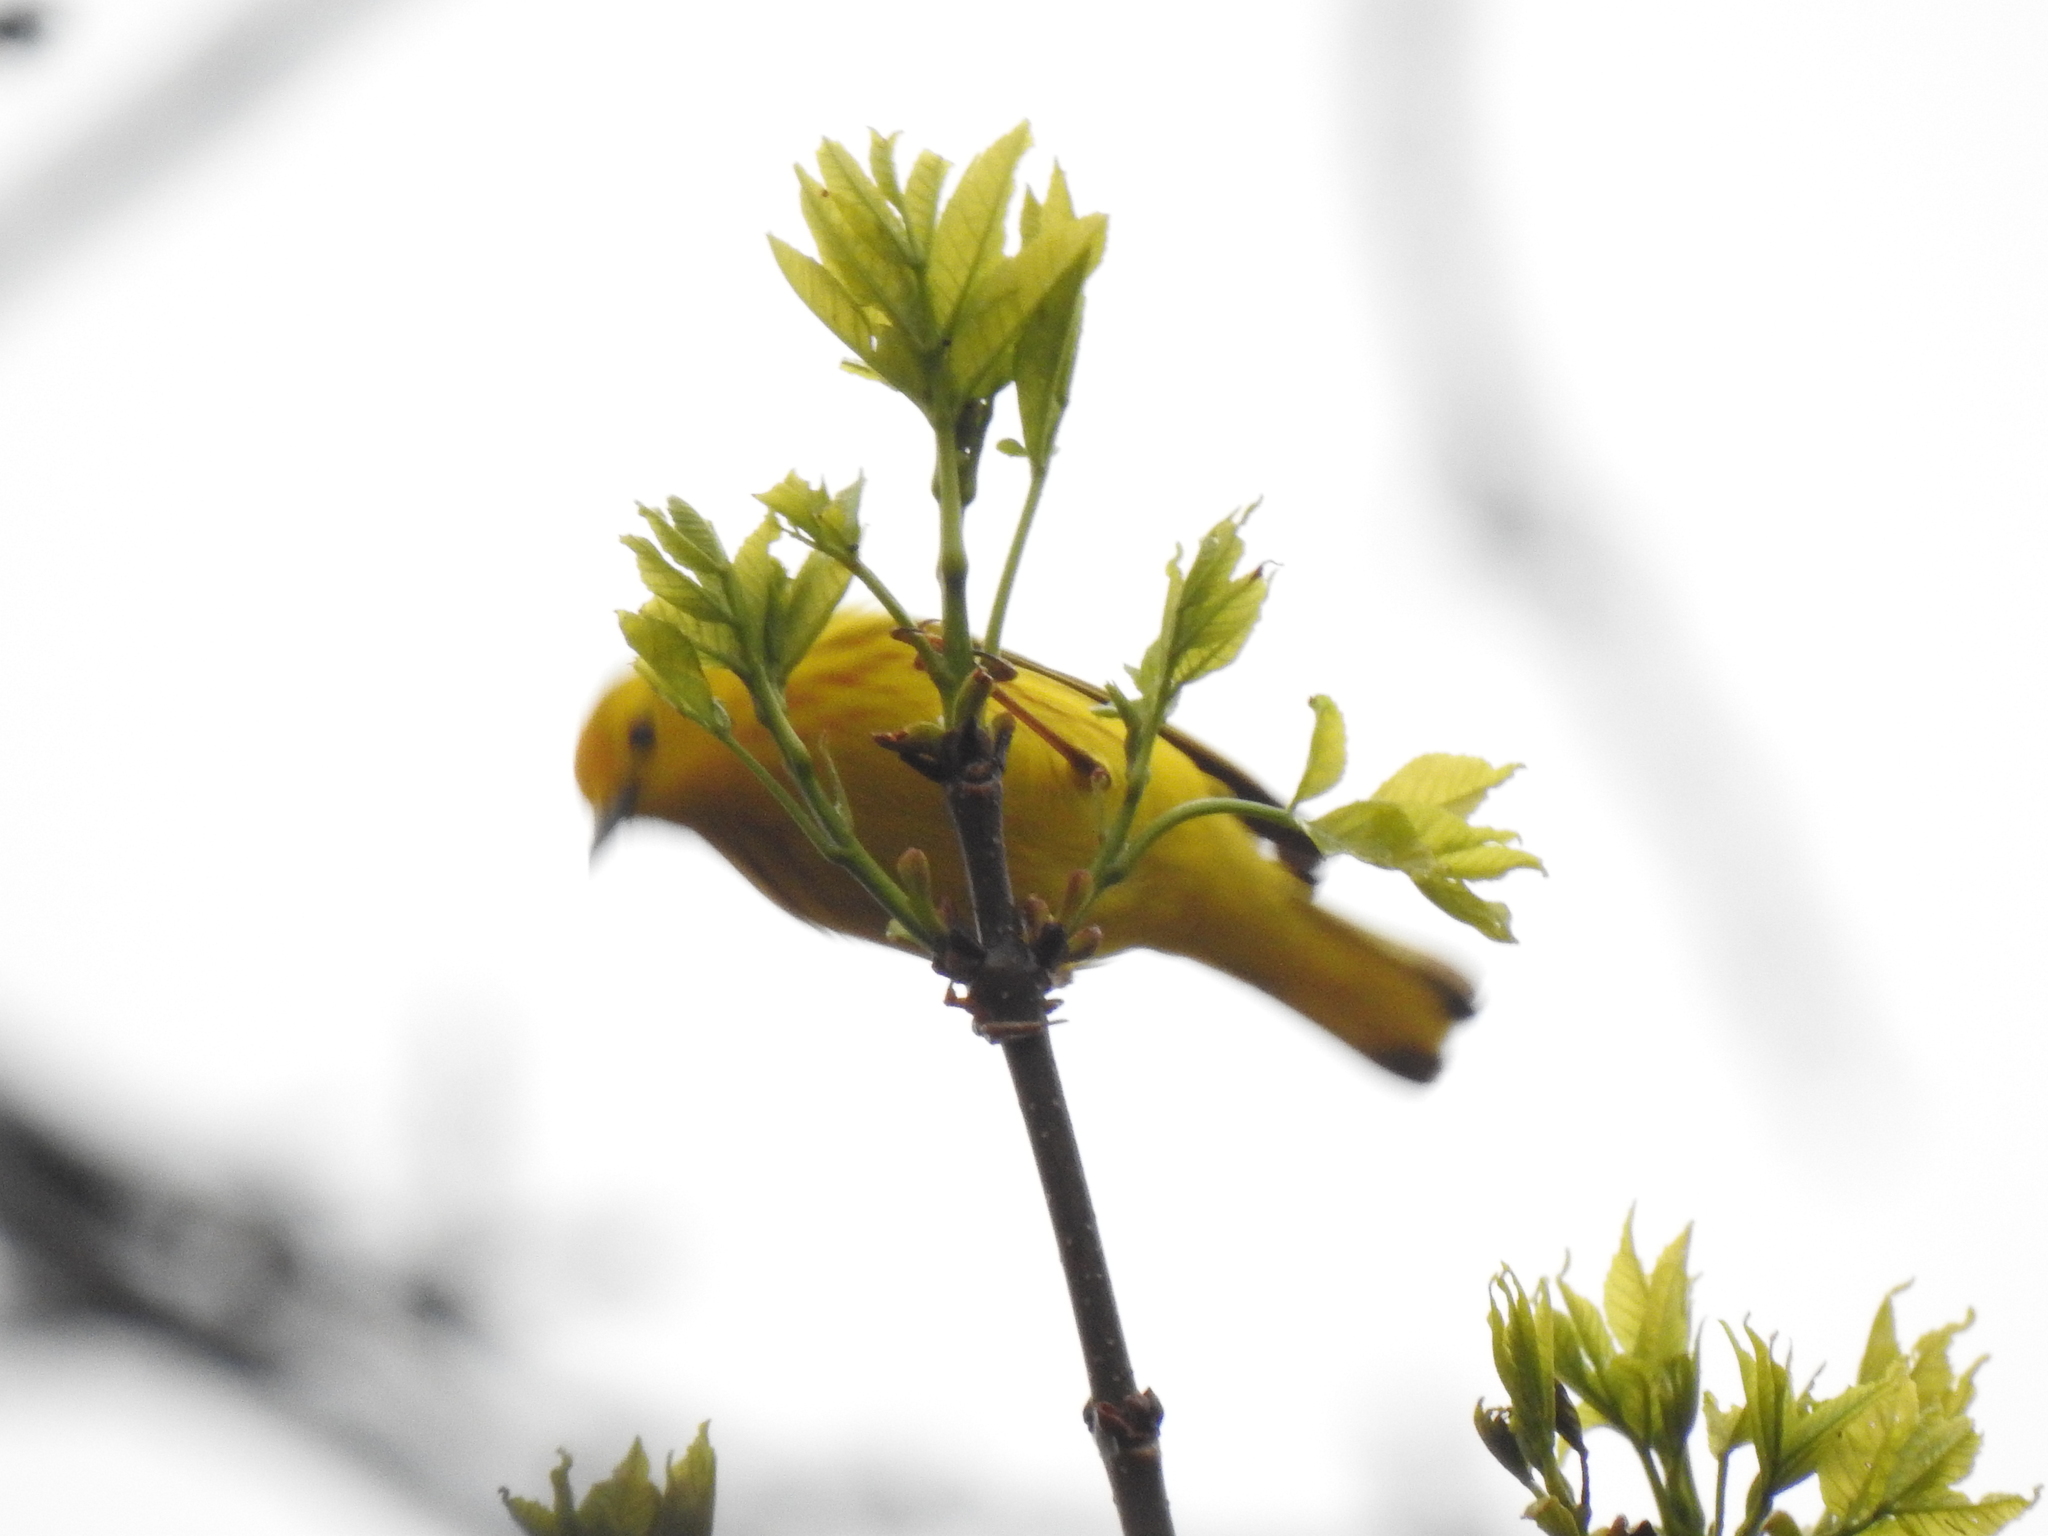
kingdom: Animalia
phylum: Chordata
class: Aves
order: Passeriformes
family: Parulidae
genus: Setophaga
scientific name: Setophaga petechia
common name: Yellow warbler
